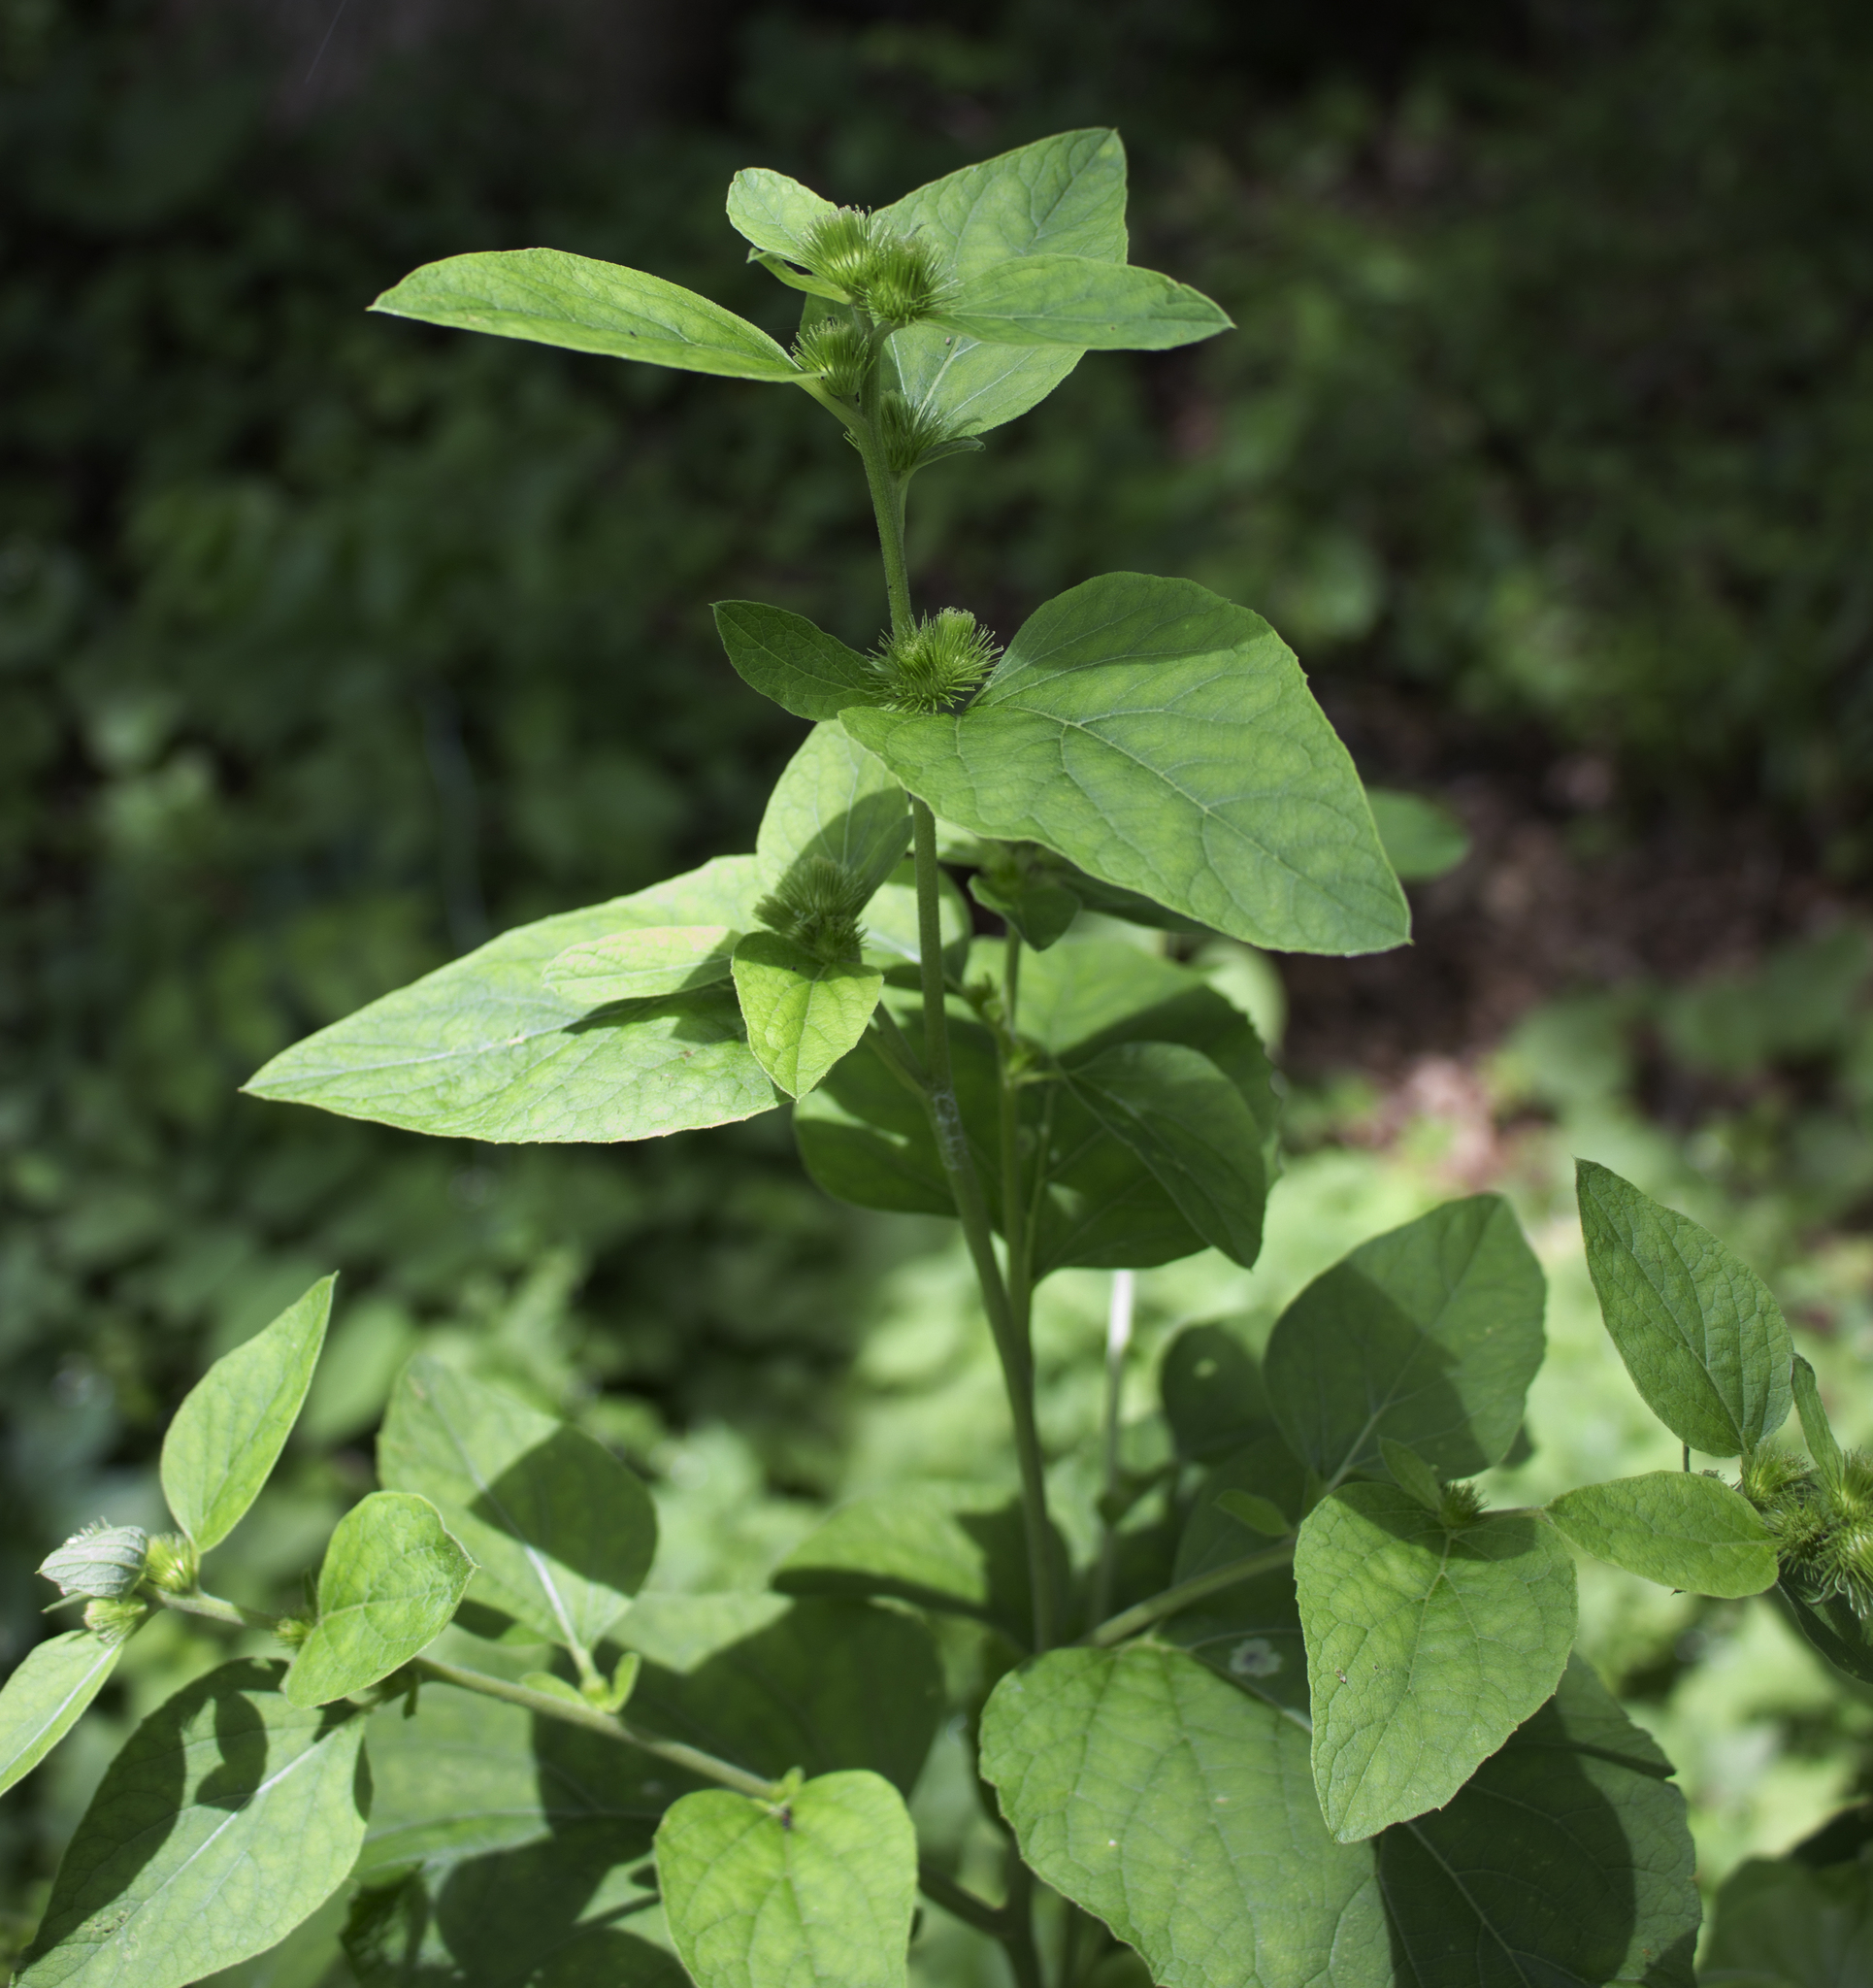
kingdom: Plantae
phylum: Tracheophyta
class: Magnoliopsida
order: Asterales
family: Asteraceae
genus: Arctium
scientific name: Arctium minus
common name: Lesser burdock
